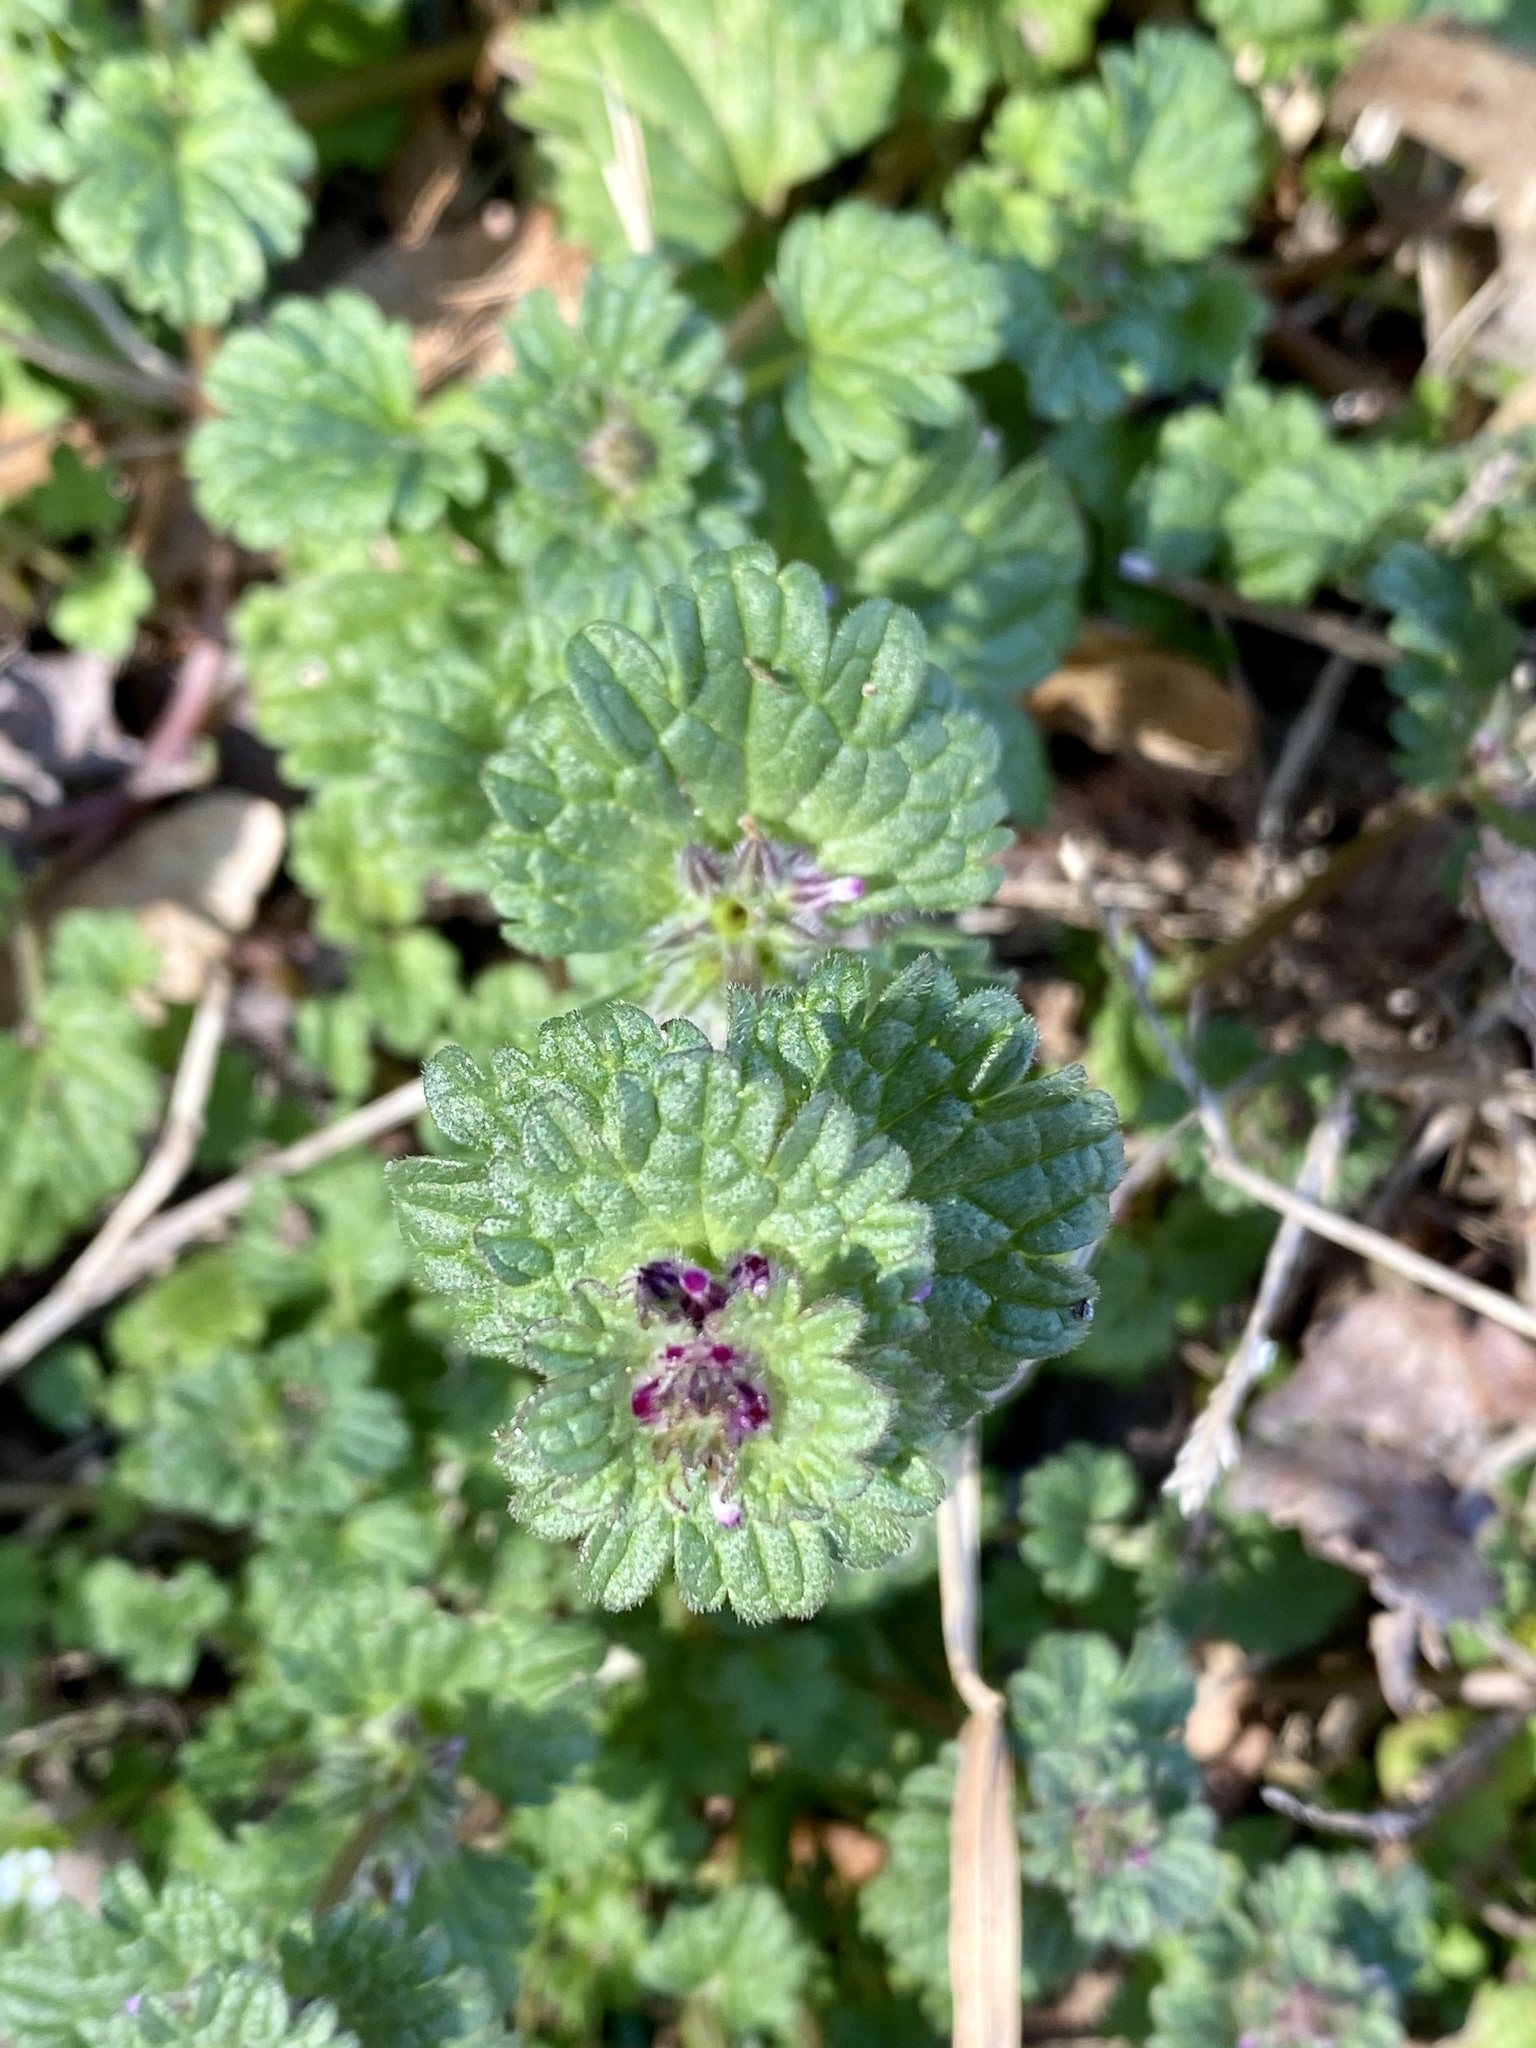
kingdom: Plantae
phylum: Tracheophyta
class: Magnoliopsida
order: Lamiales
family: Lamiaceae
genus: Lamium
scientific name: Lamium amplexicaule
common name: Henbit dead-nettle
